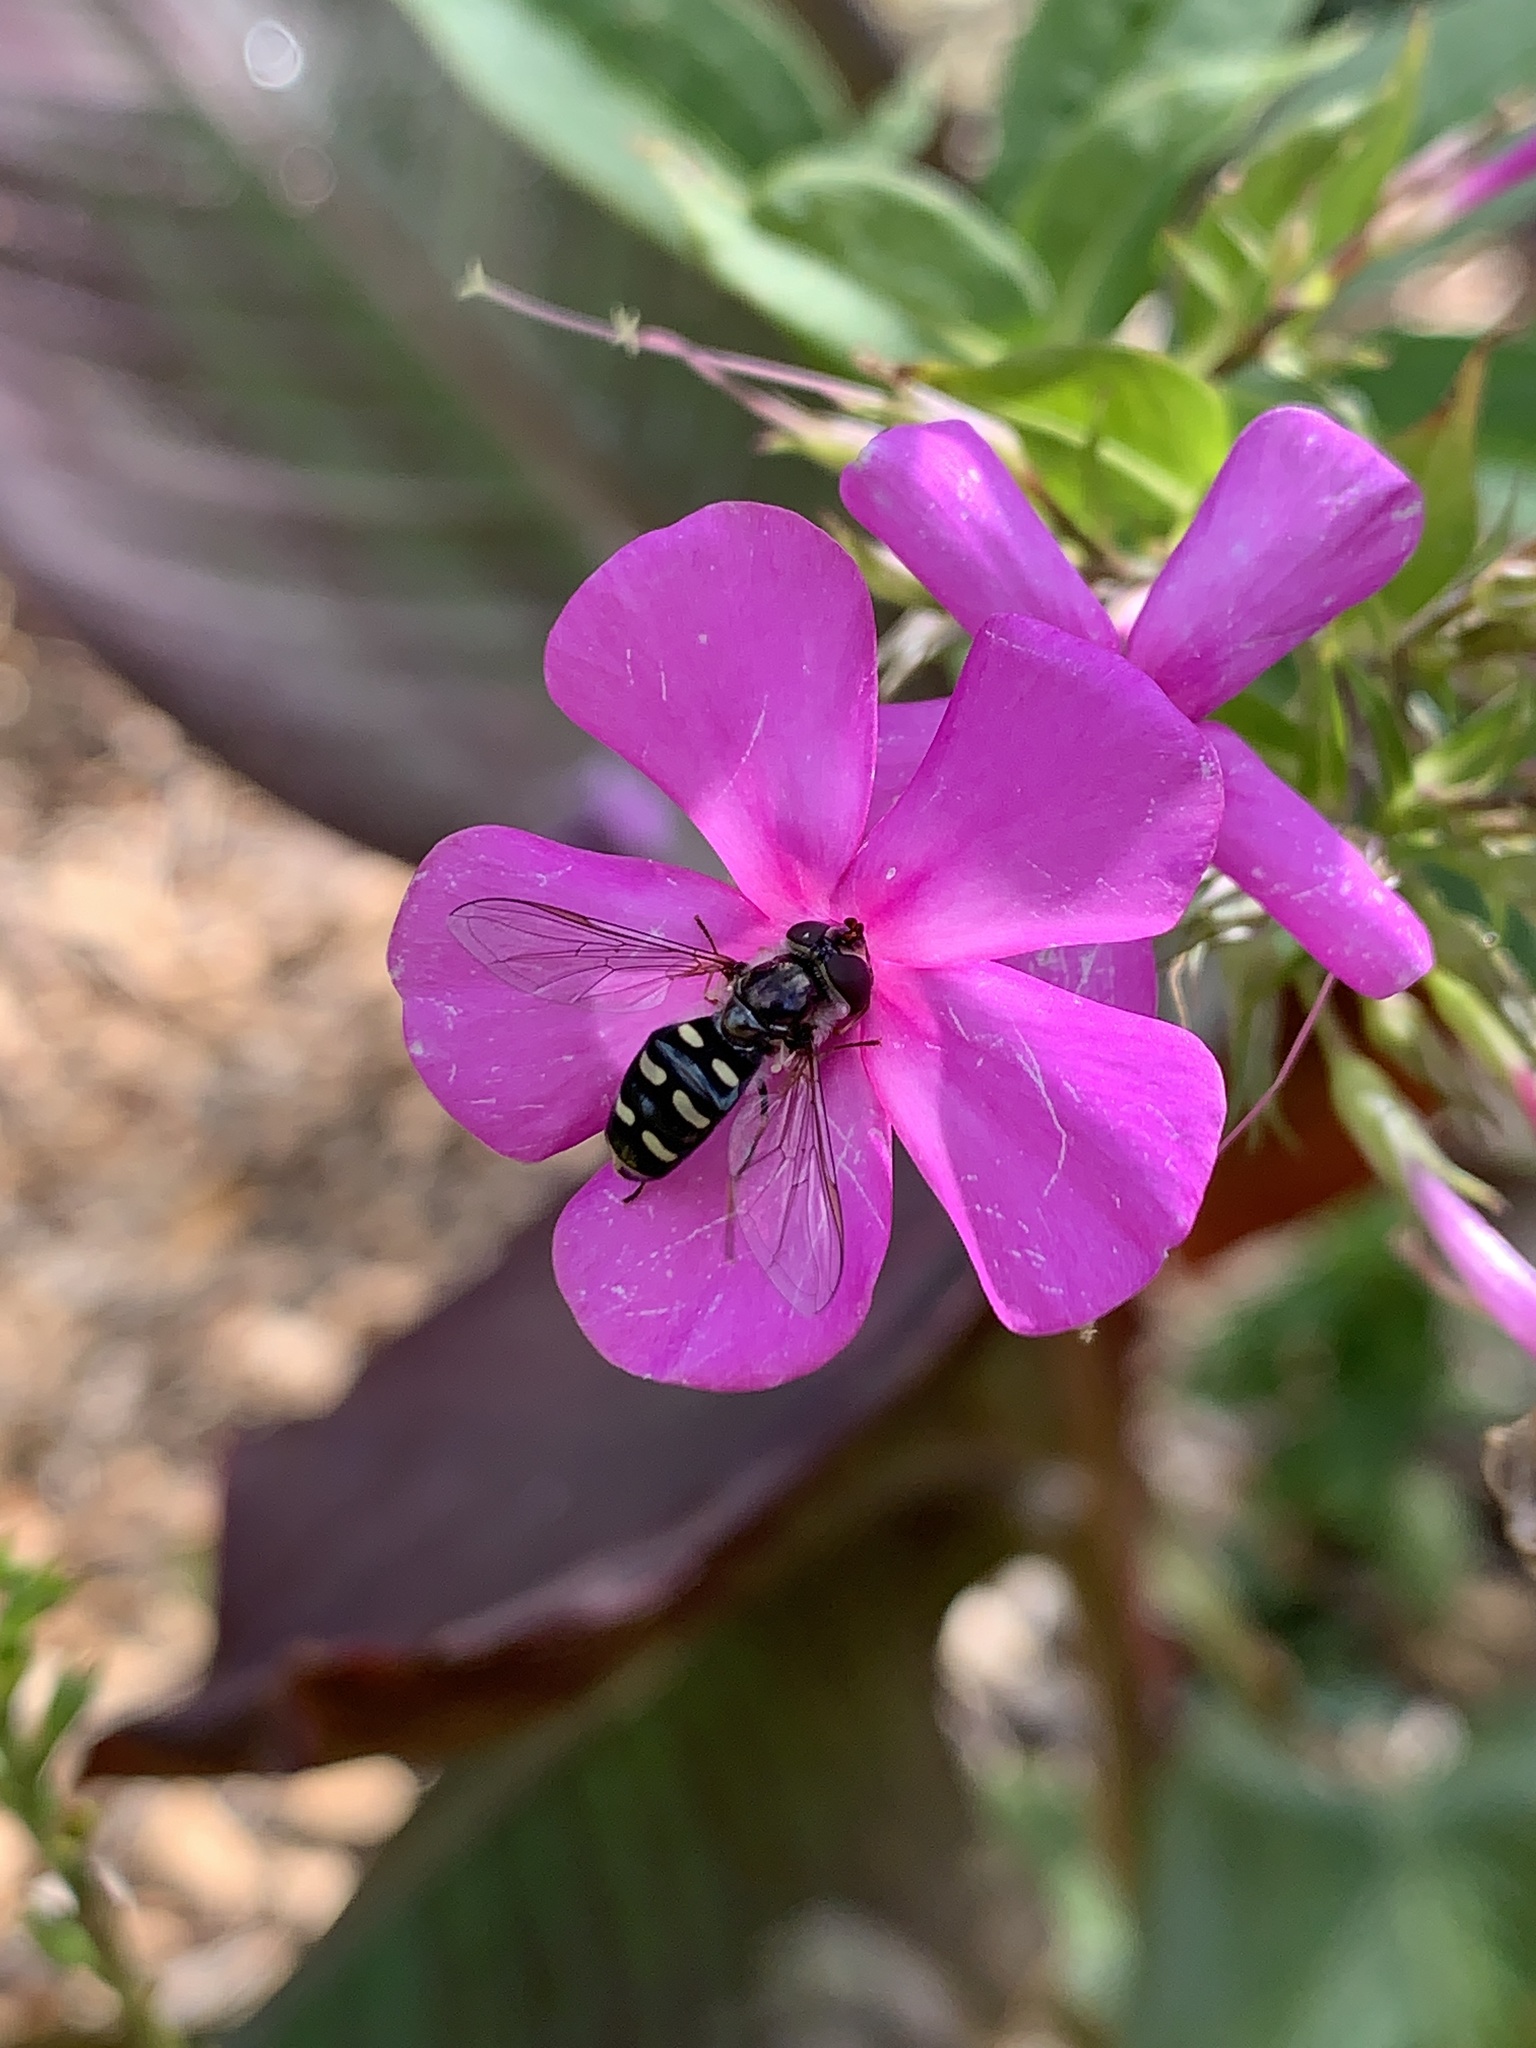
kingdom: Animalia
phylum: Arthropoda
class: Insecta
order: Diptera
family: Syrphidae
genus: Eupeodes
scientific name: Eupeodes perplexus
